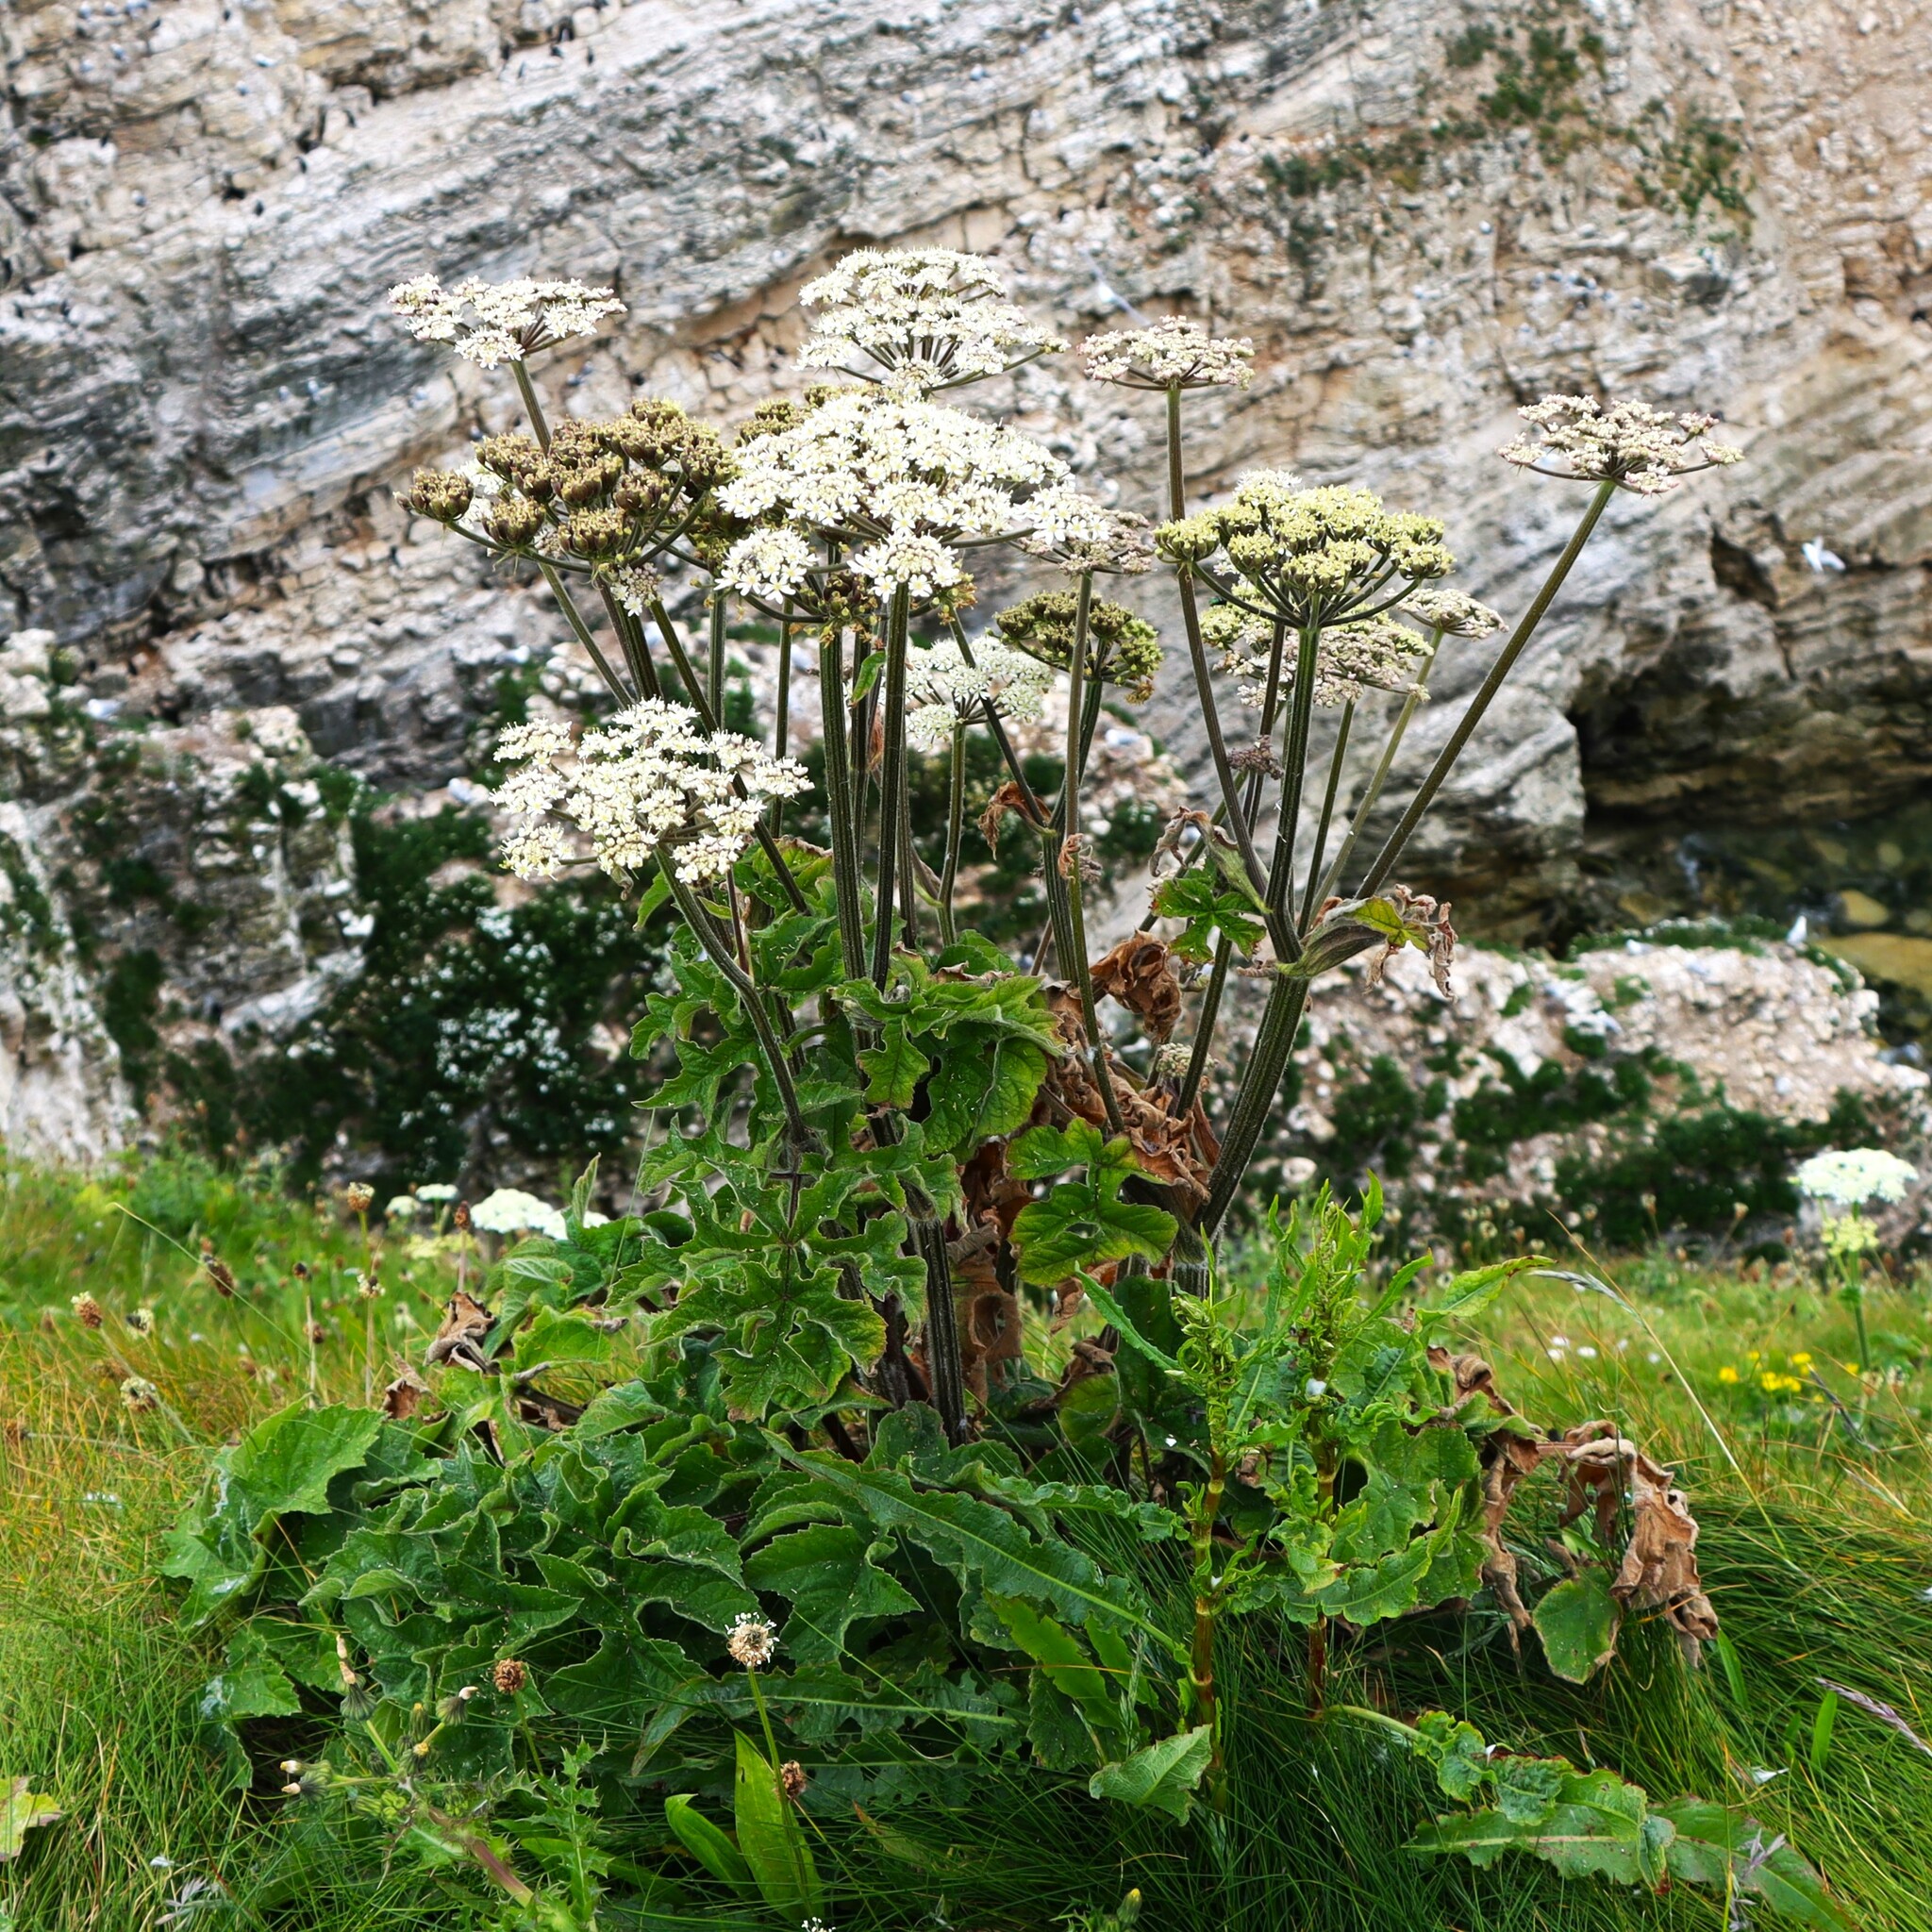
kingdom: Plantae
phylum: Tracheophyta
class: Magnoliopsida
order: Apiales
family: Apiaceae
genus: Heracleum
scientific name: Heracleum sphondylium
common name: Hogweed
